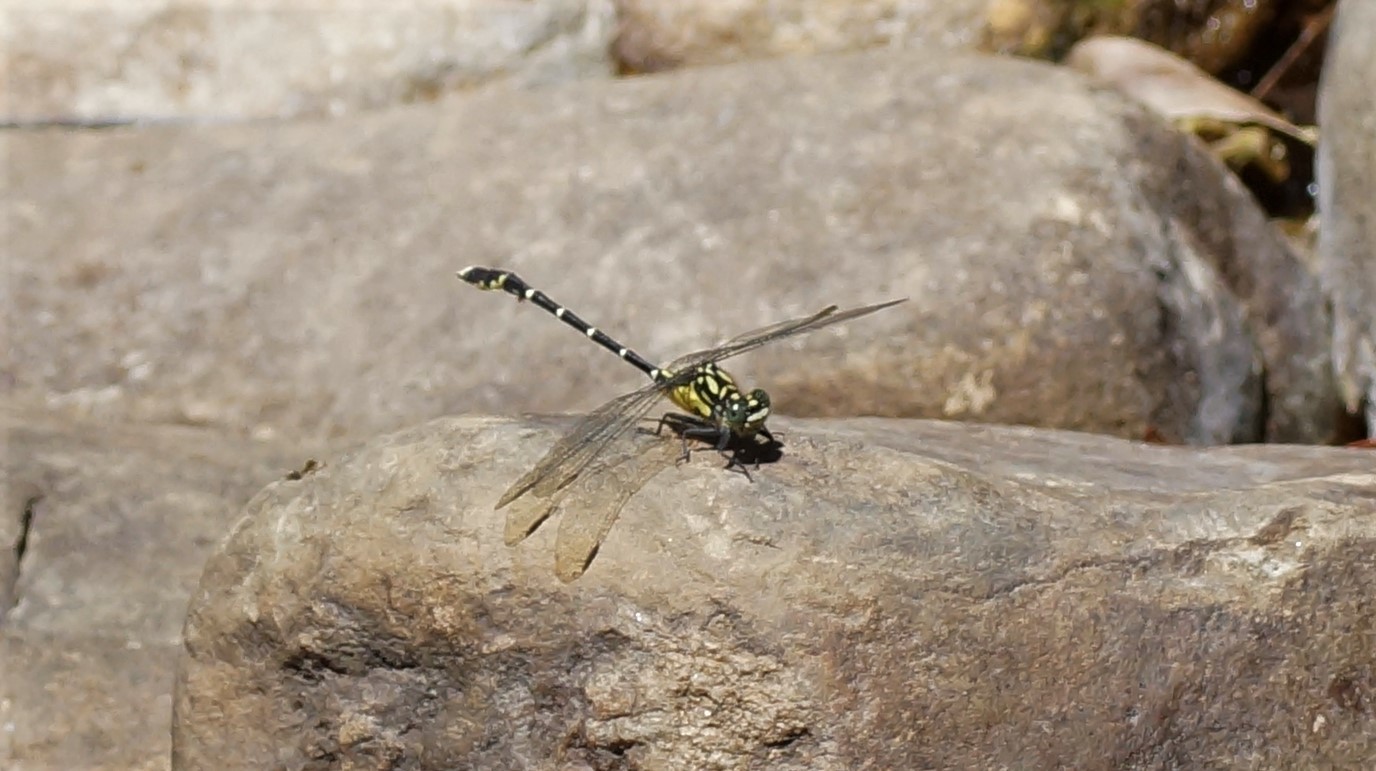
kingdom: Animalia
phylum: Arthropoda
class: Insecta
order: Odonata
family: Gomphidae
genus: Hemigomphus
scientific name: Hemigomphus gouldii
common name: Southern vicetail
